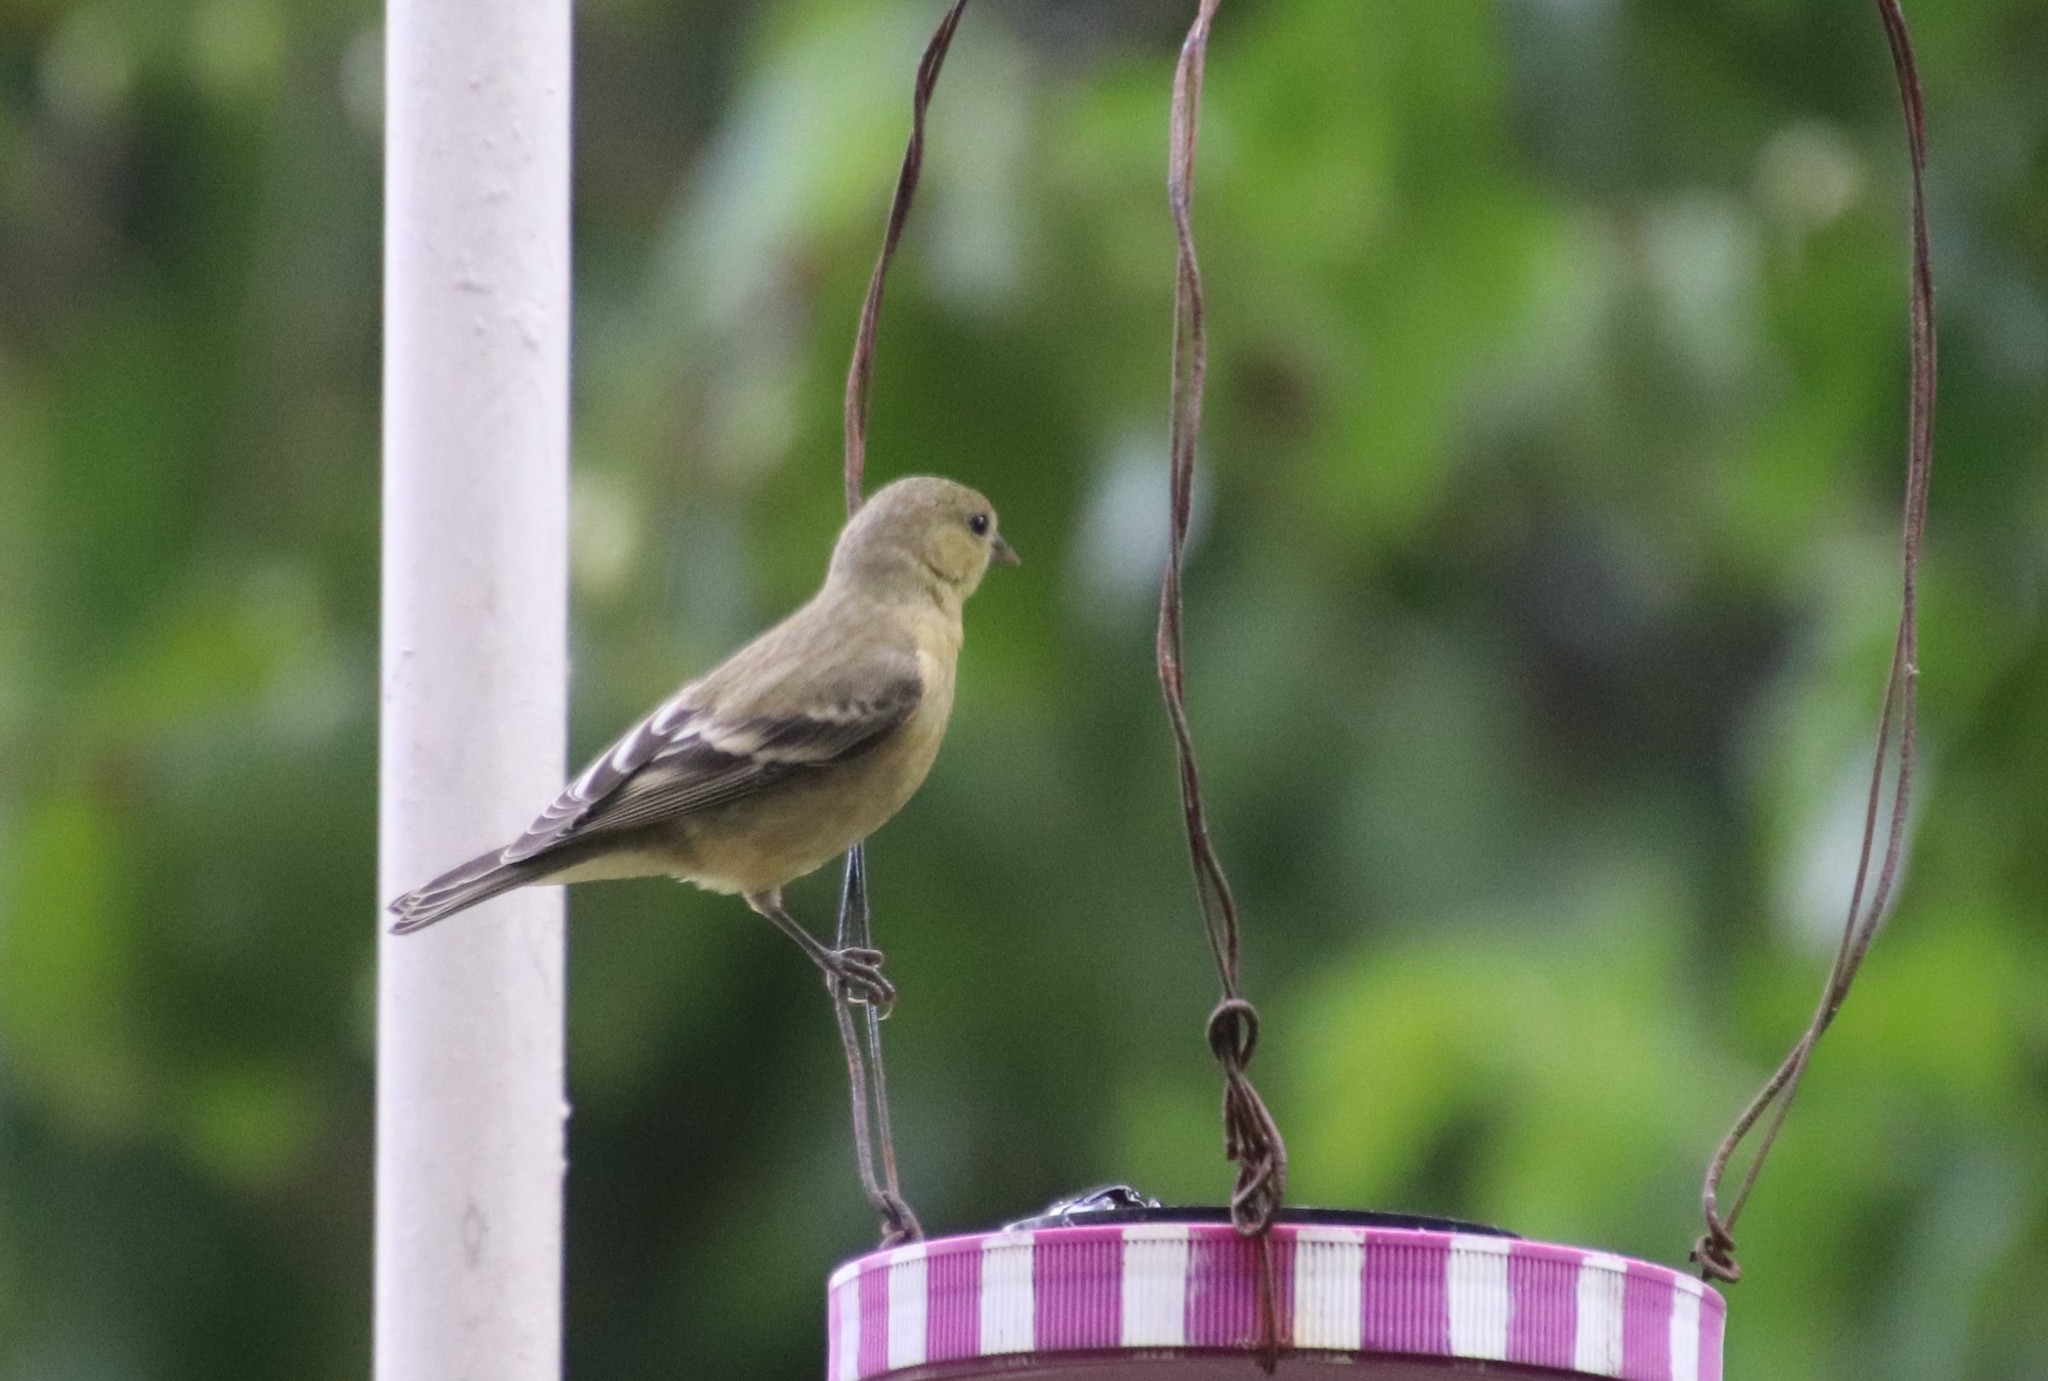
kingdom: Animalia
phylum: Chordata
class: Aves
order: Passeriformes
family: Fringillidae
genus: Spinus
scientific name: Spinus psaltria
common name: Lesser goldfinch
